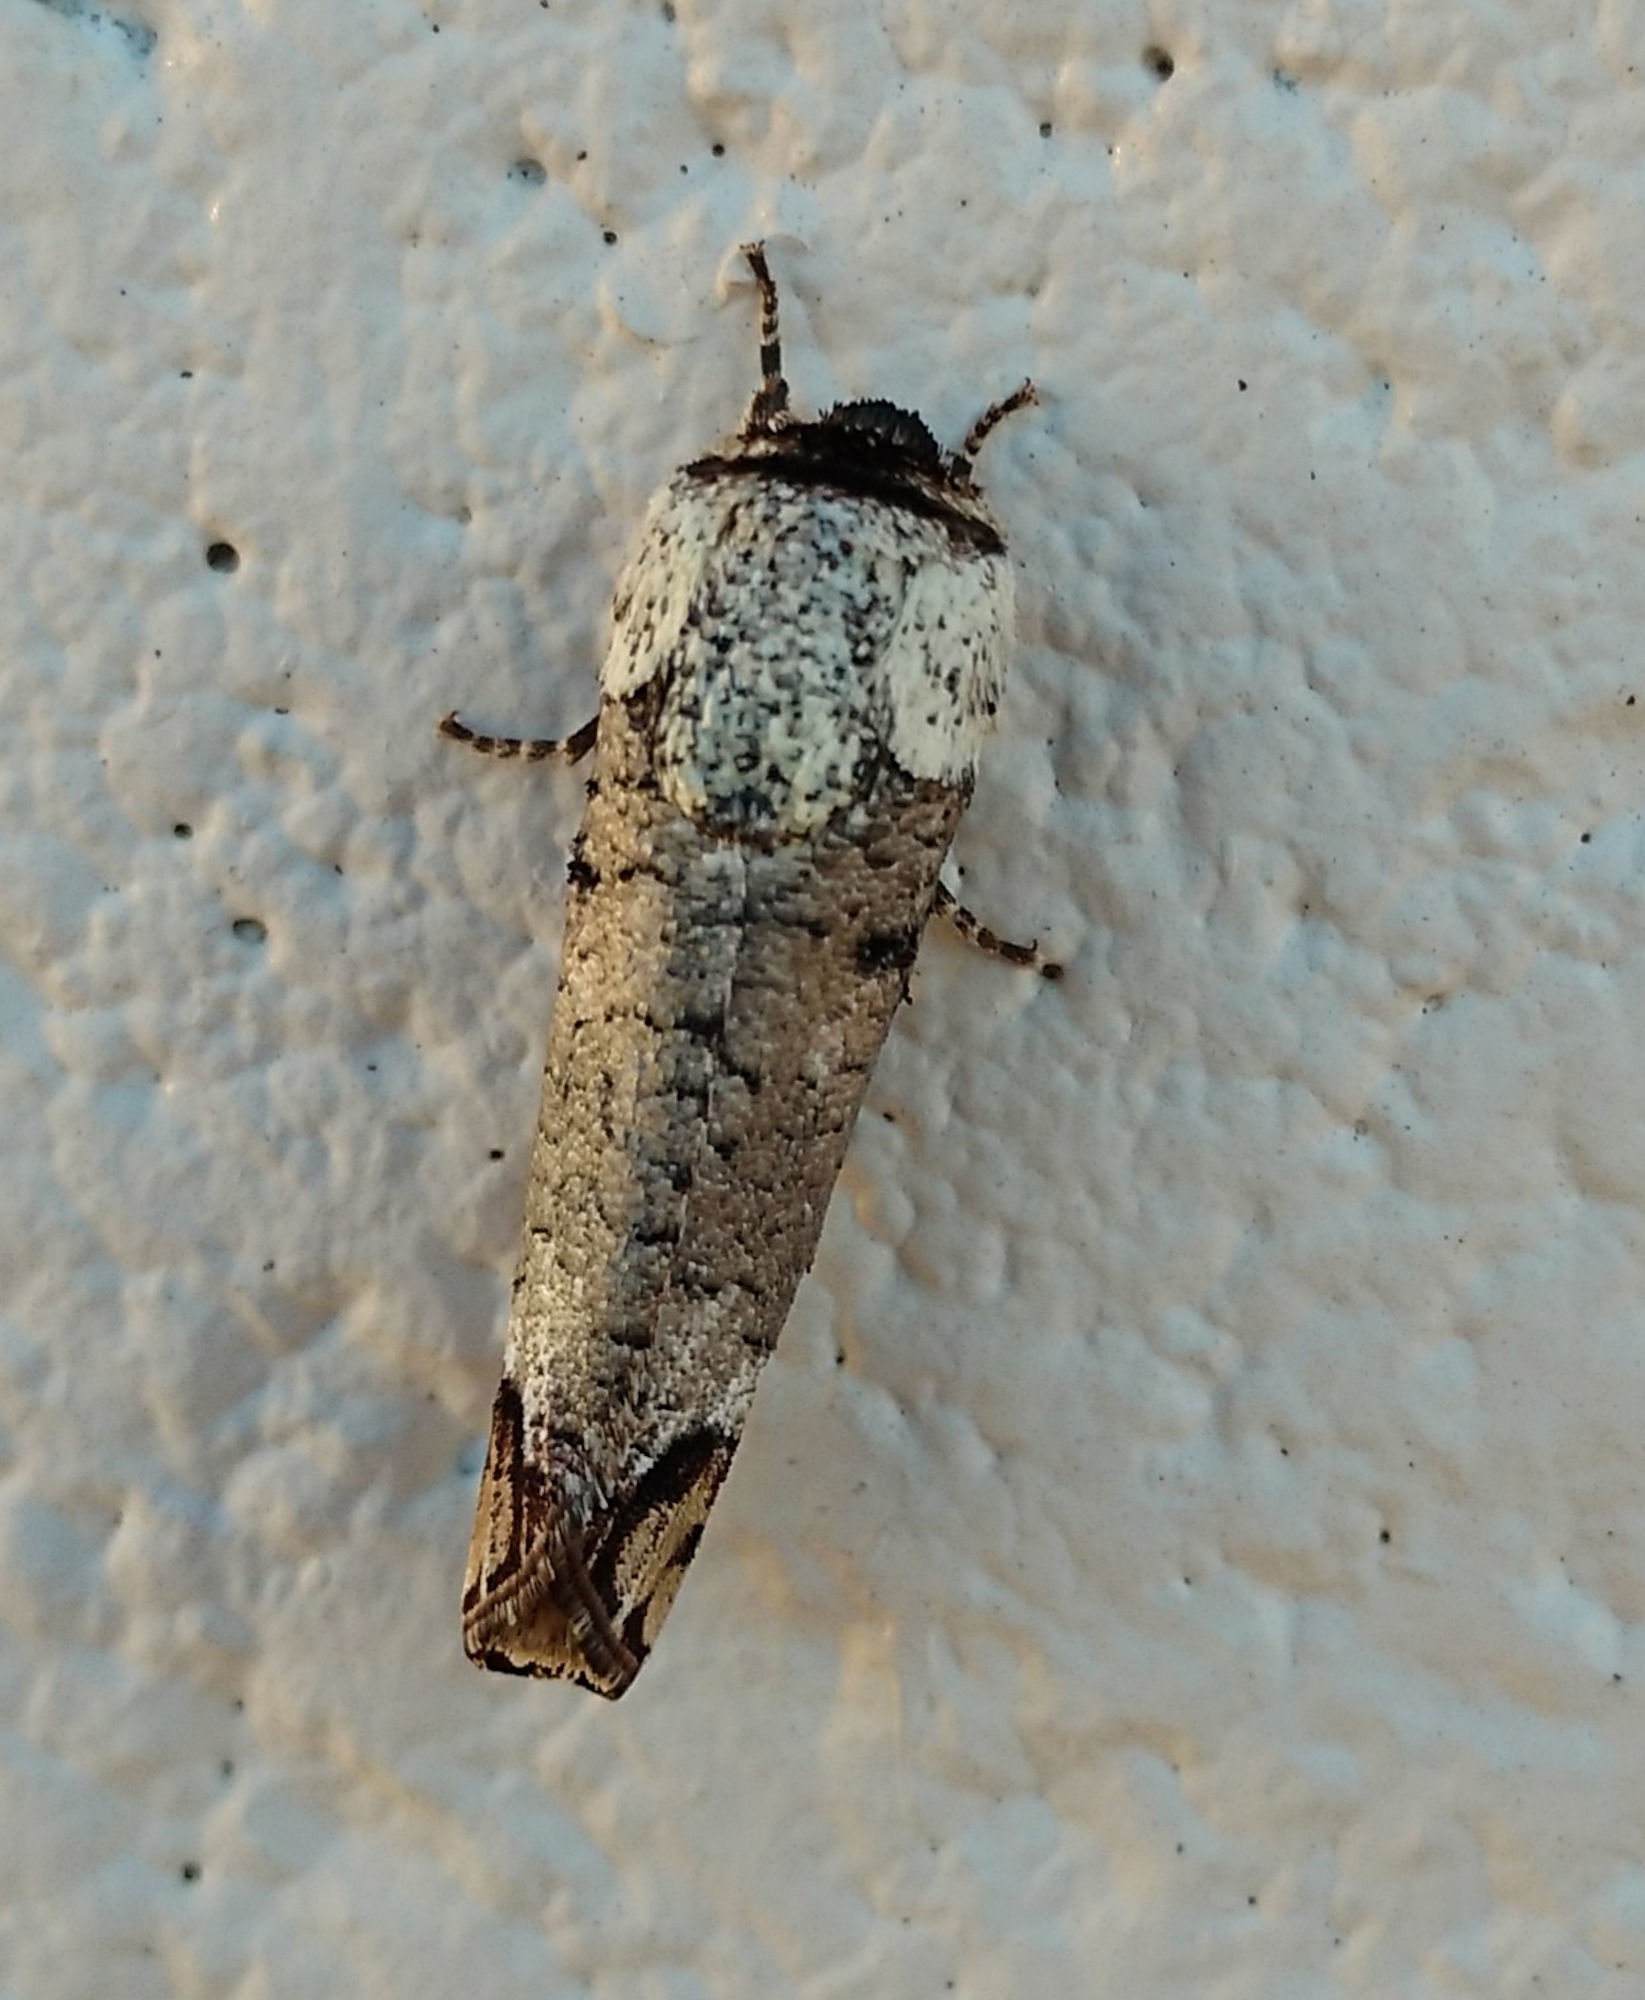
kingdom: Animalia
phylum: Arthropoda
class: Insecta
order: Lepidoptera
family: Cossidae
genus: Cossula
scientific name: Cossula magnifica
